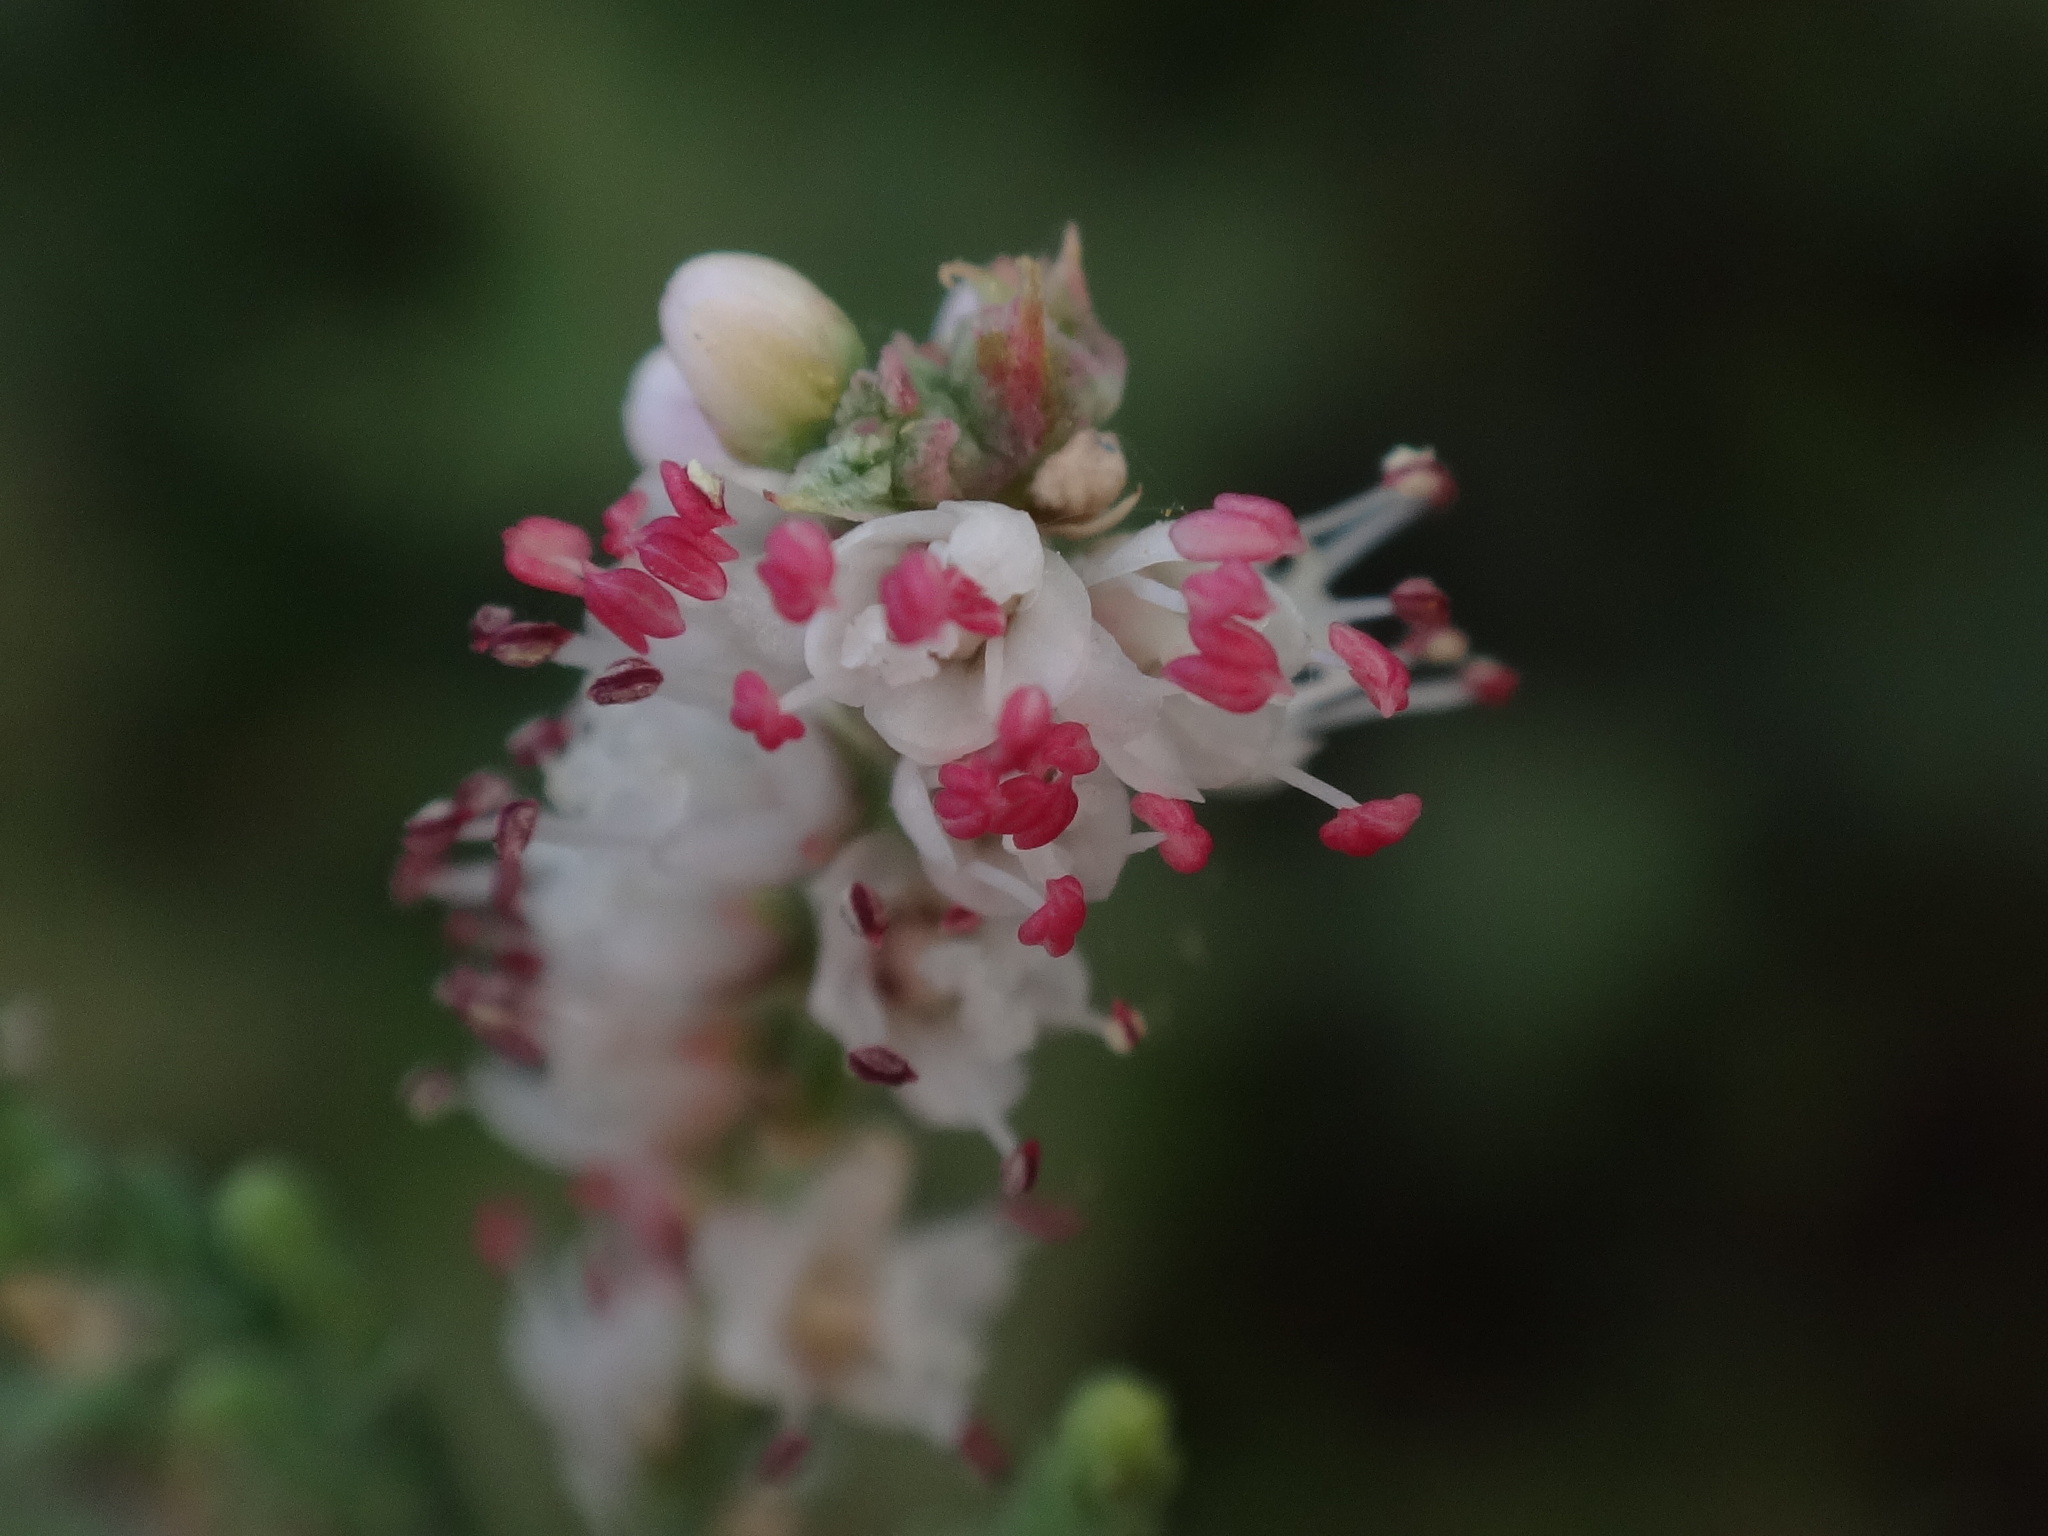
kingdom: Plantae
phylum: Tracheophyta
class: Magnoliopsida
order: Caryophyllales
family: Tamaricaceae
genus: Tamarix
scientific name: Tamarix canariensis
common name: Canary island tamarisk
